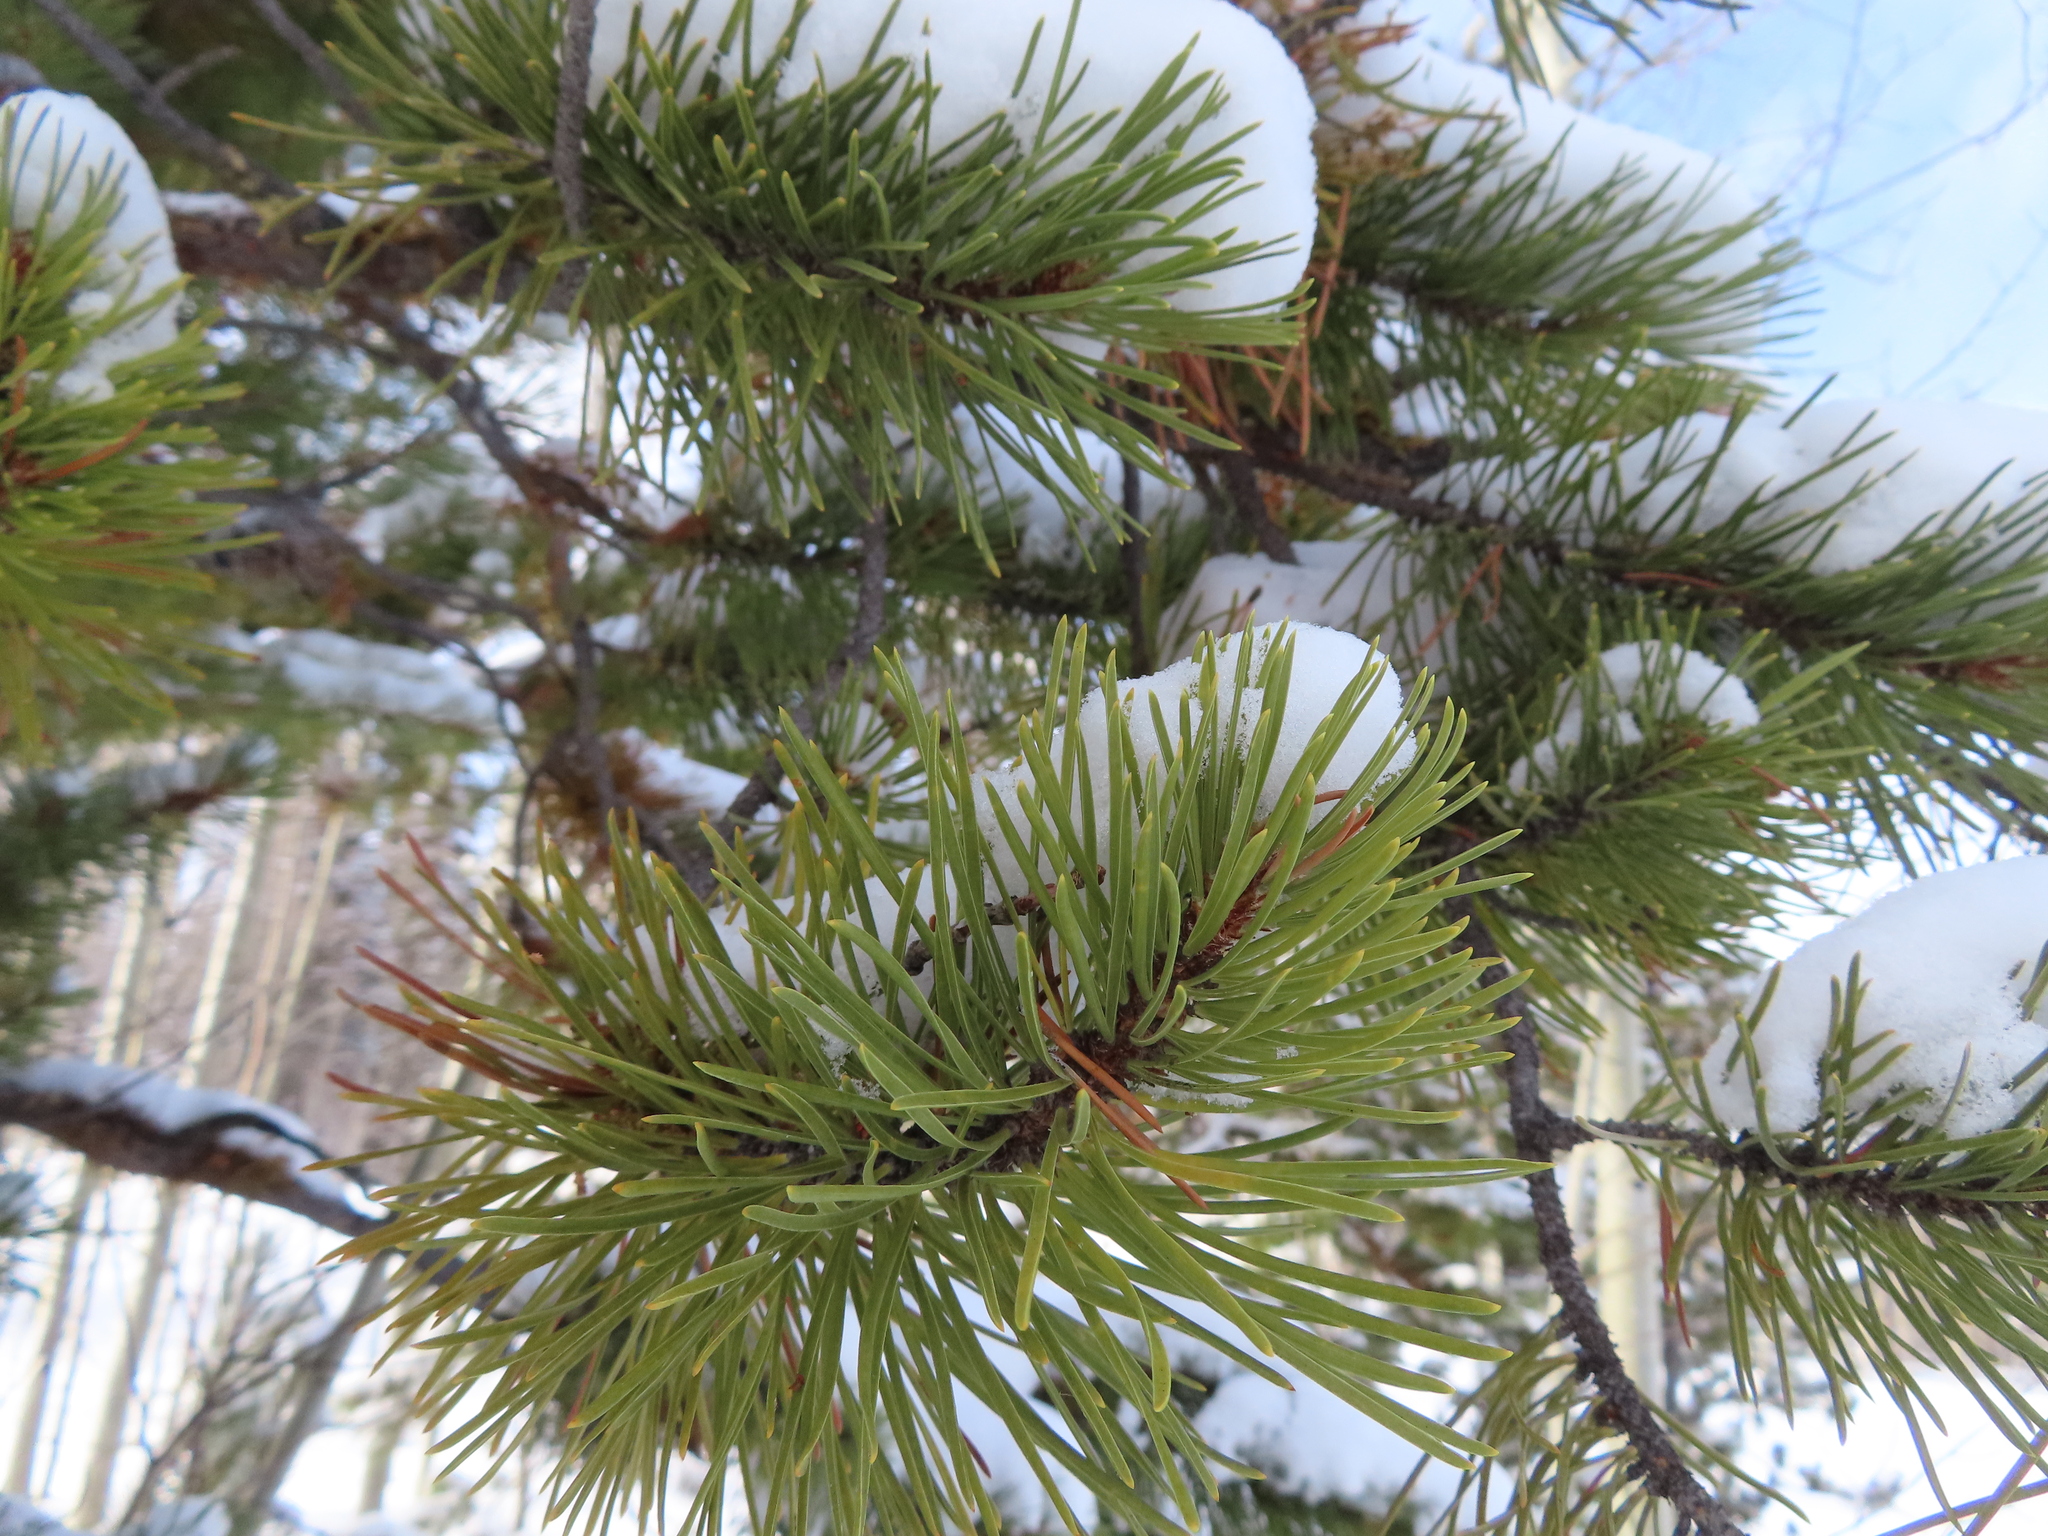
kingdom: Plantae
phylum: Tracheophyta
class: Pinopsida
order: Pinales
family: Pinaceae
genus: Pinus
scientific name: Pinus contorta
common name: Lodgepole pine
